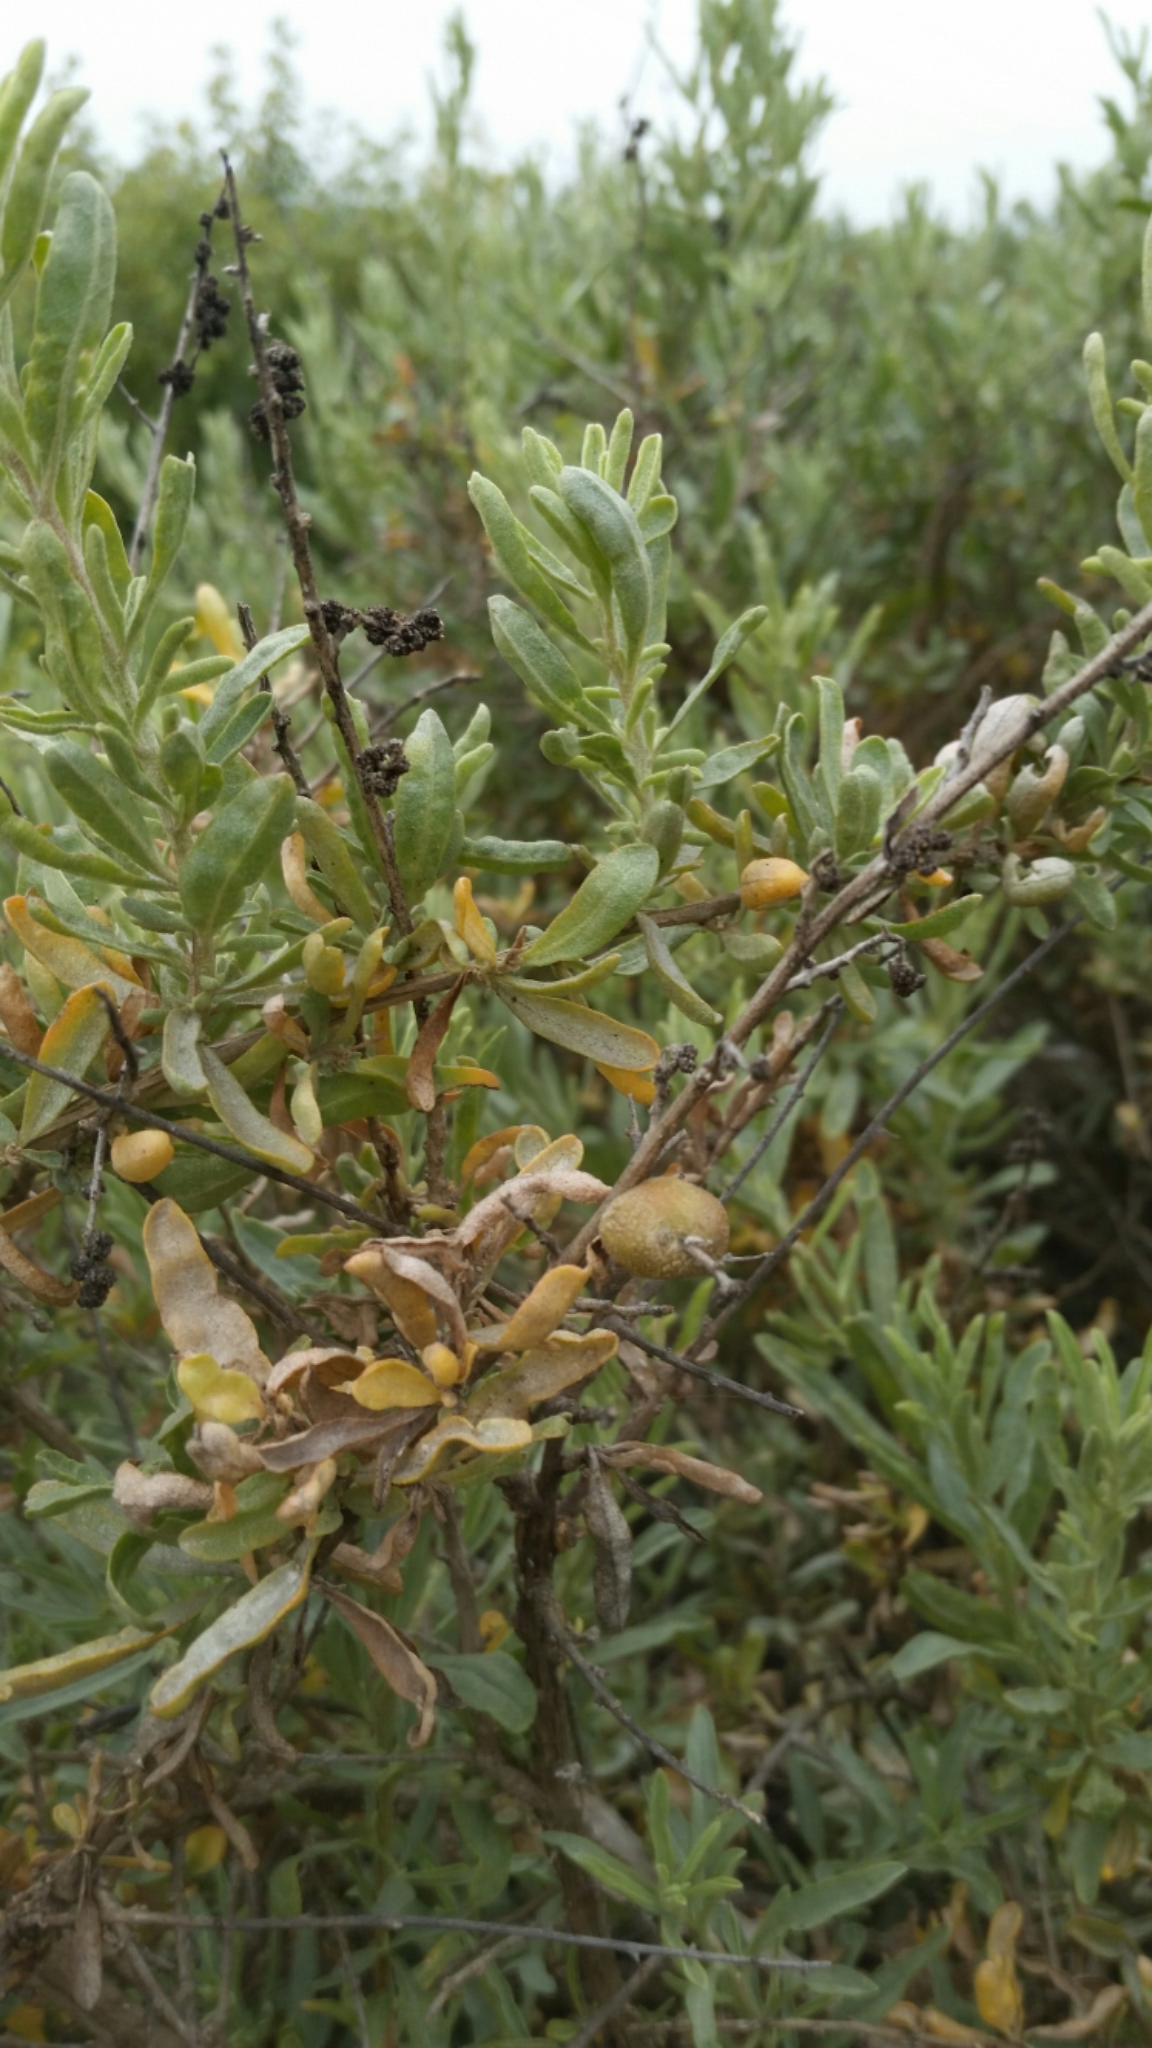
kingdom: Plantae
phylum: Tracheophyta
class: Magnoliopsida
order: Caryophyllales
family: Amaranthaceae
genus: Atriplex
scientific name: Atriplex canescens
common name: Four-wing saltbush
